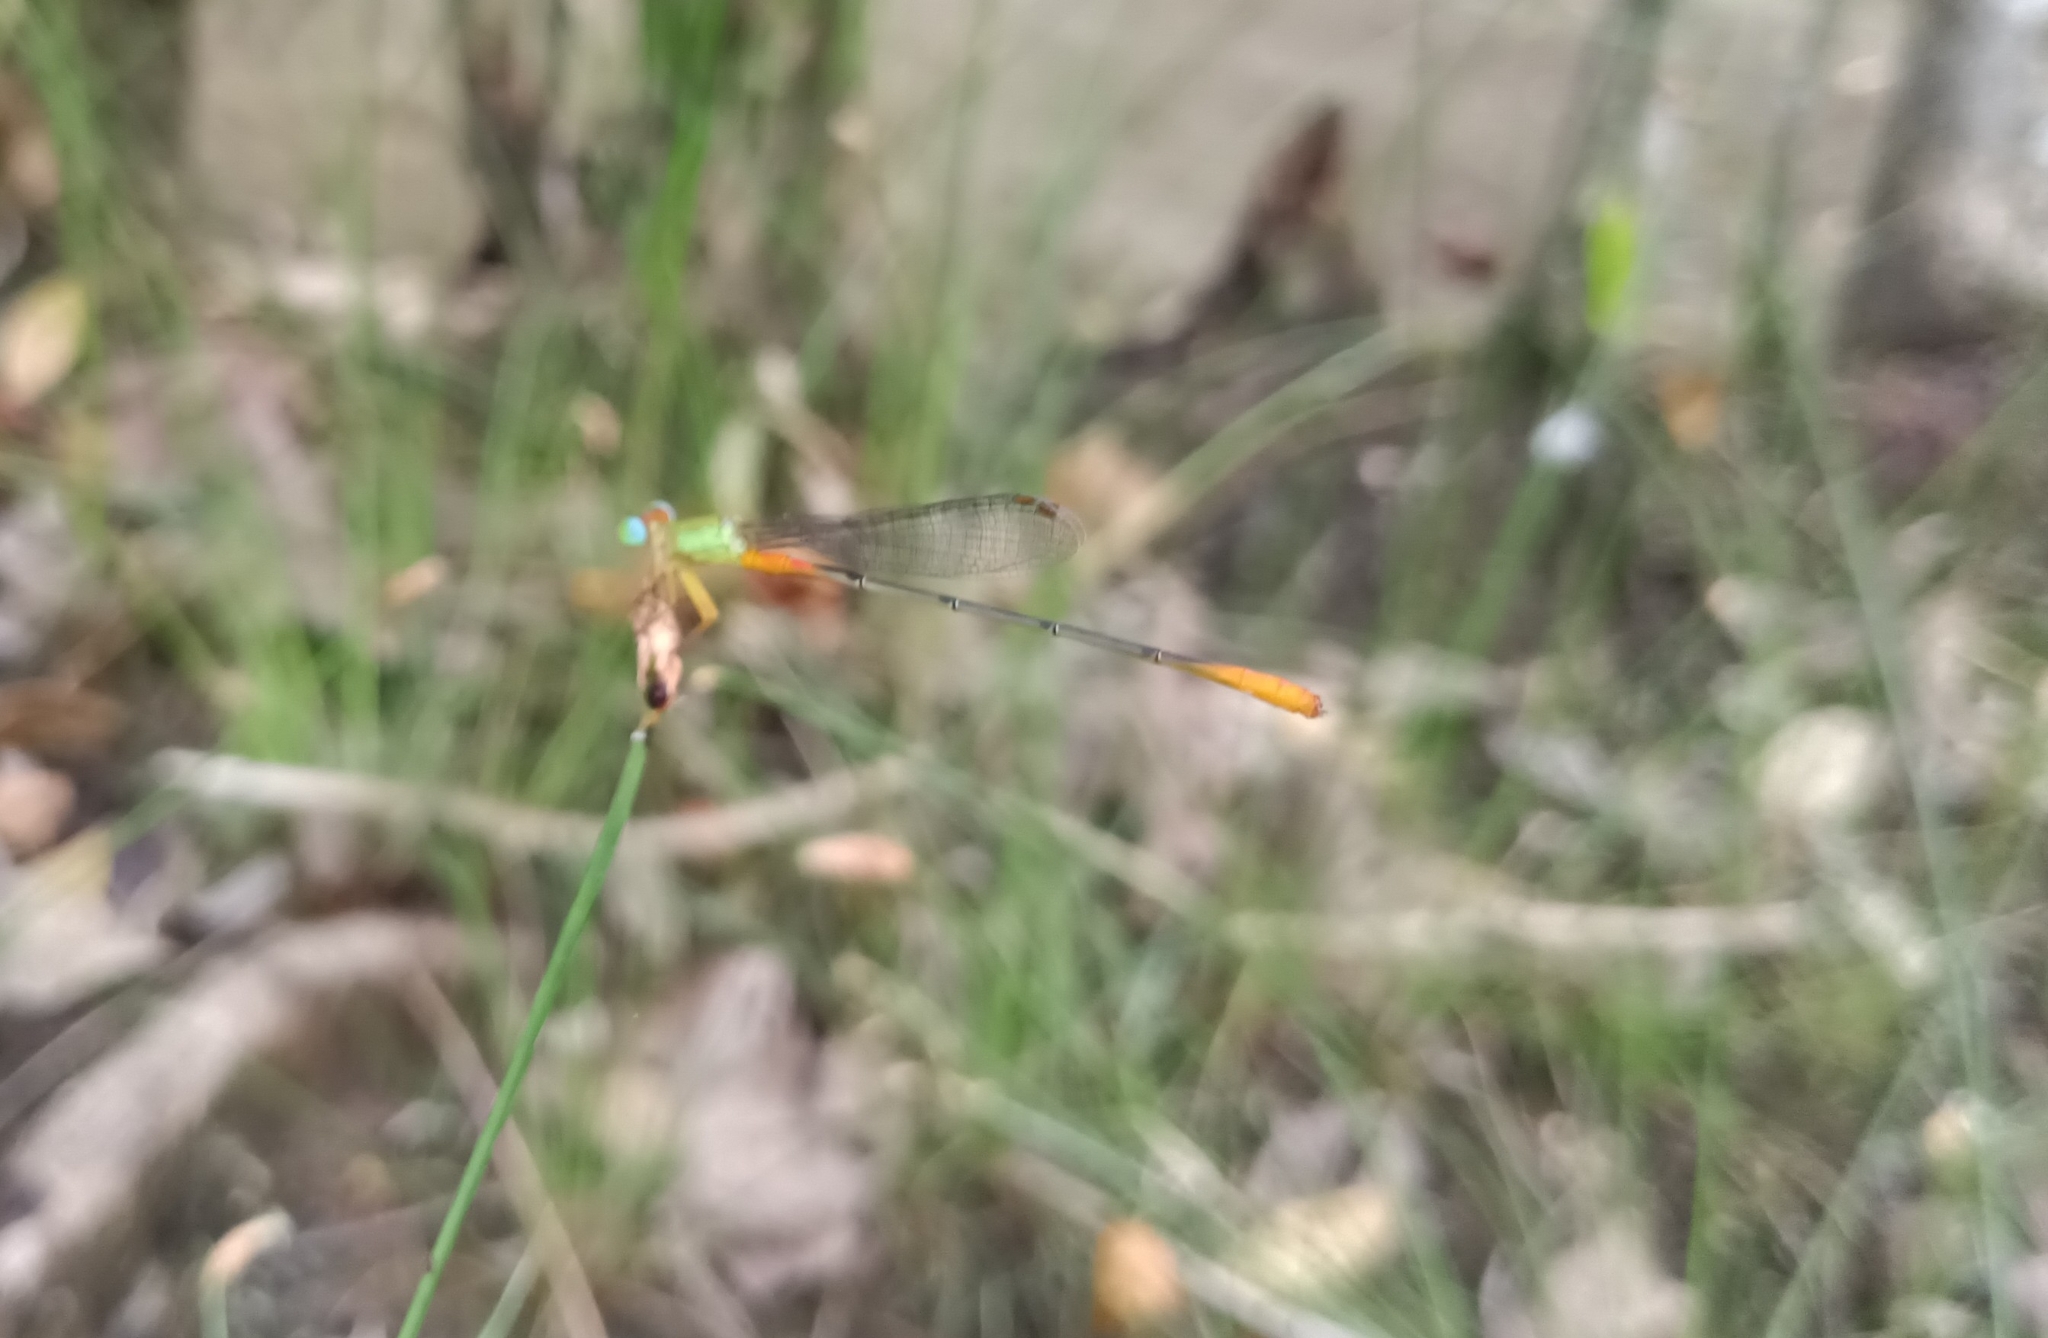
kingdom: Animalia
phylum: Arthropoda
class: Insecta
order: Odonata
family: Coenagrionidae
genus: Ceriagrion
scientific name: Ceriagrion cerinorubellum
